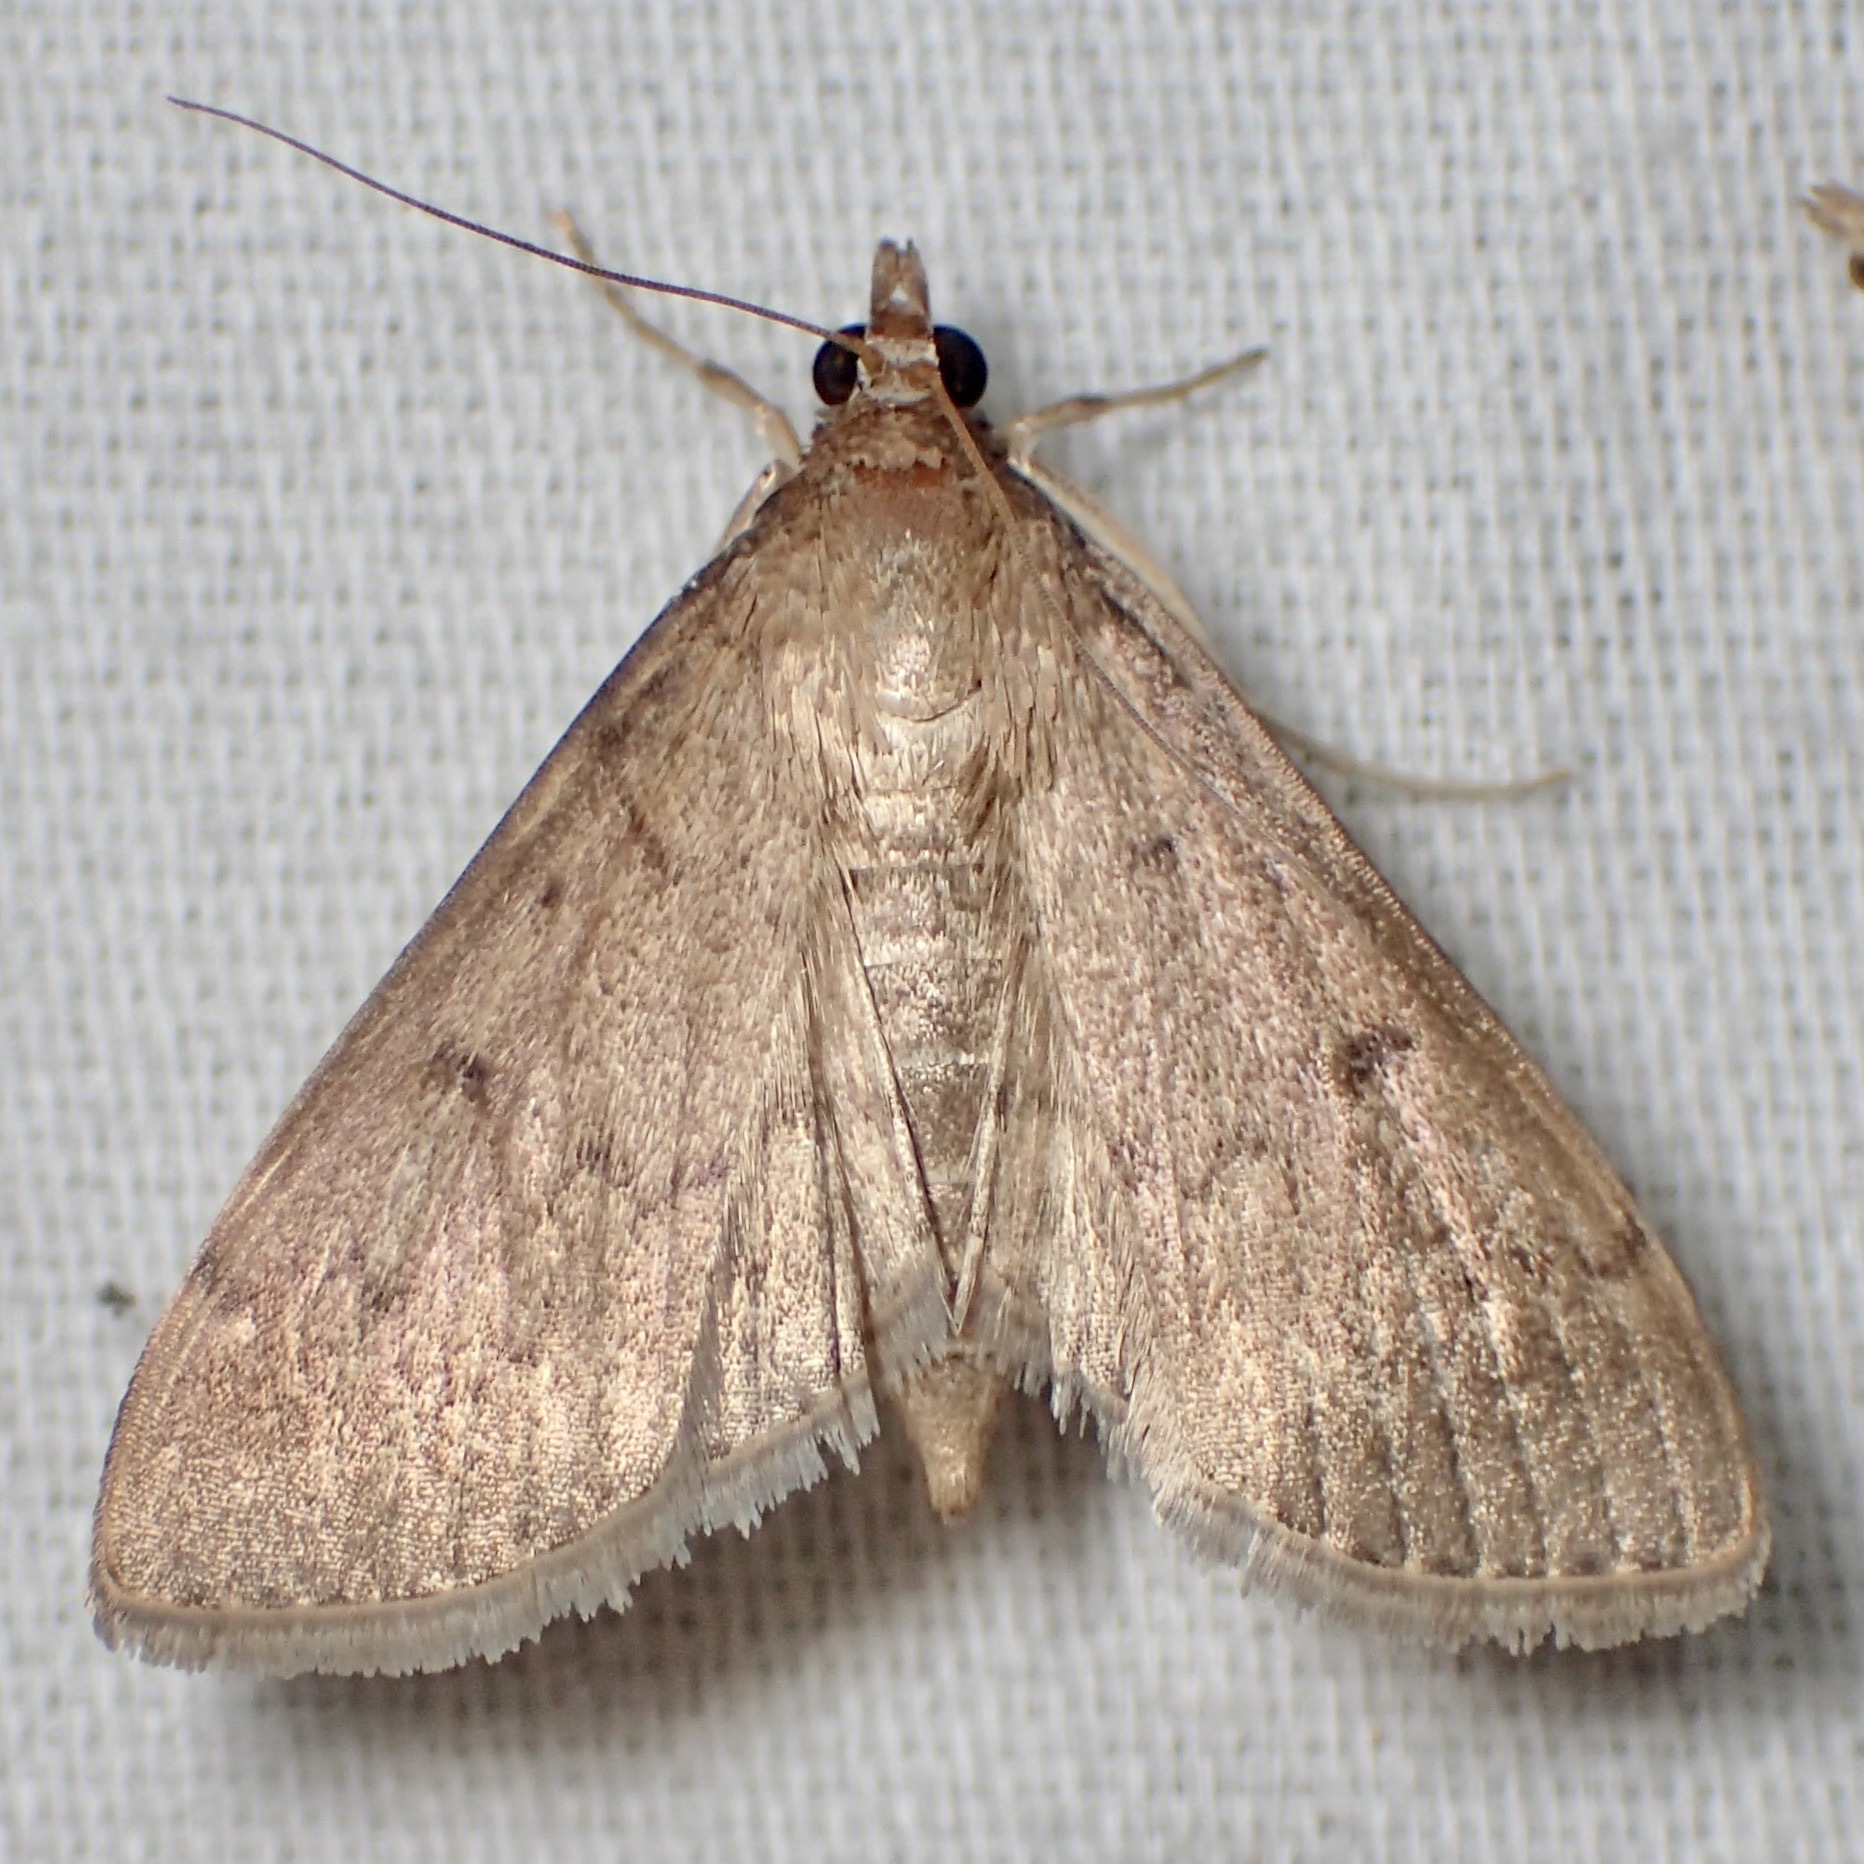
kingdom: Animalia
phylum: Arthropoda
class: Insecta
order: Lepidoptera
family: Crambidae
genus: Herpetogramma
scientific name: Herpetogramma licarsisalis
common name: Grass webworm
